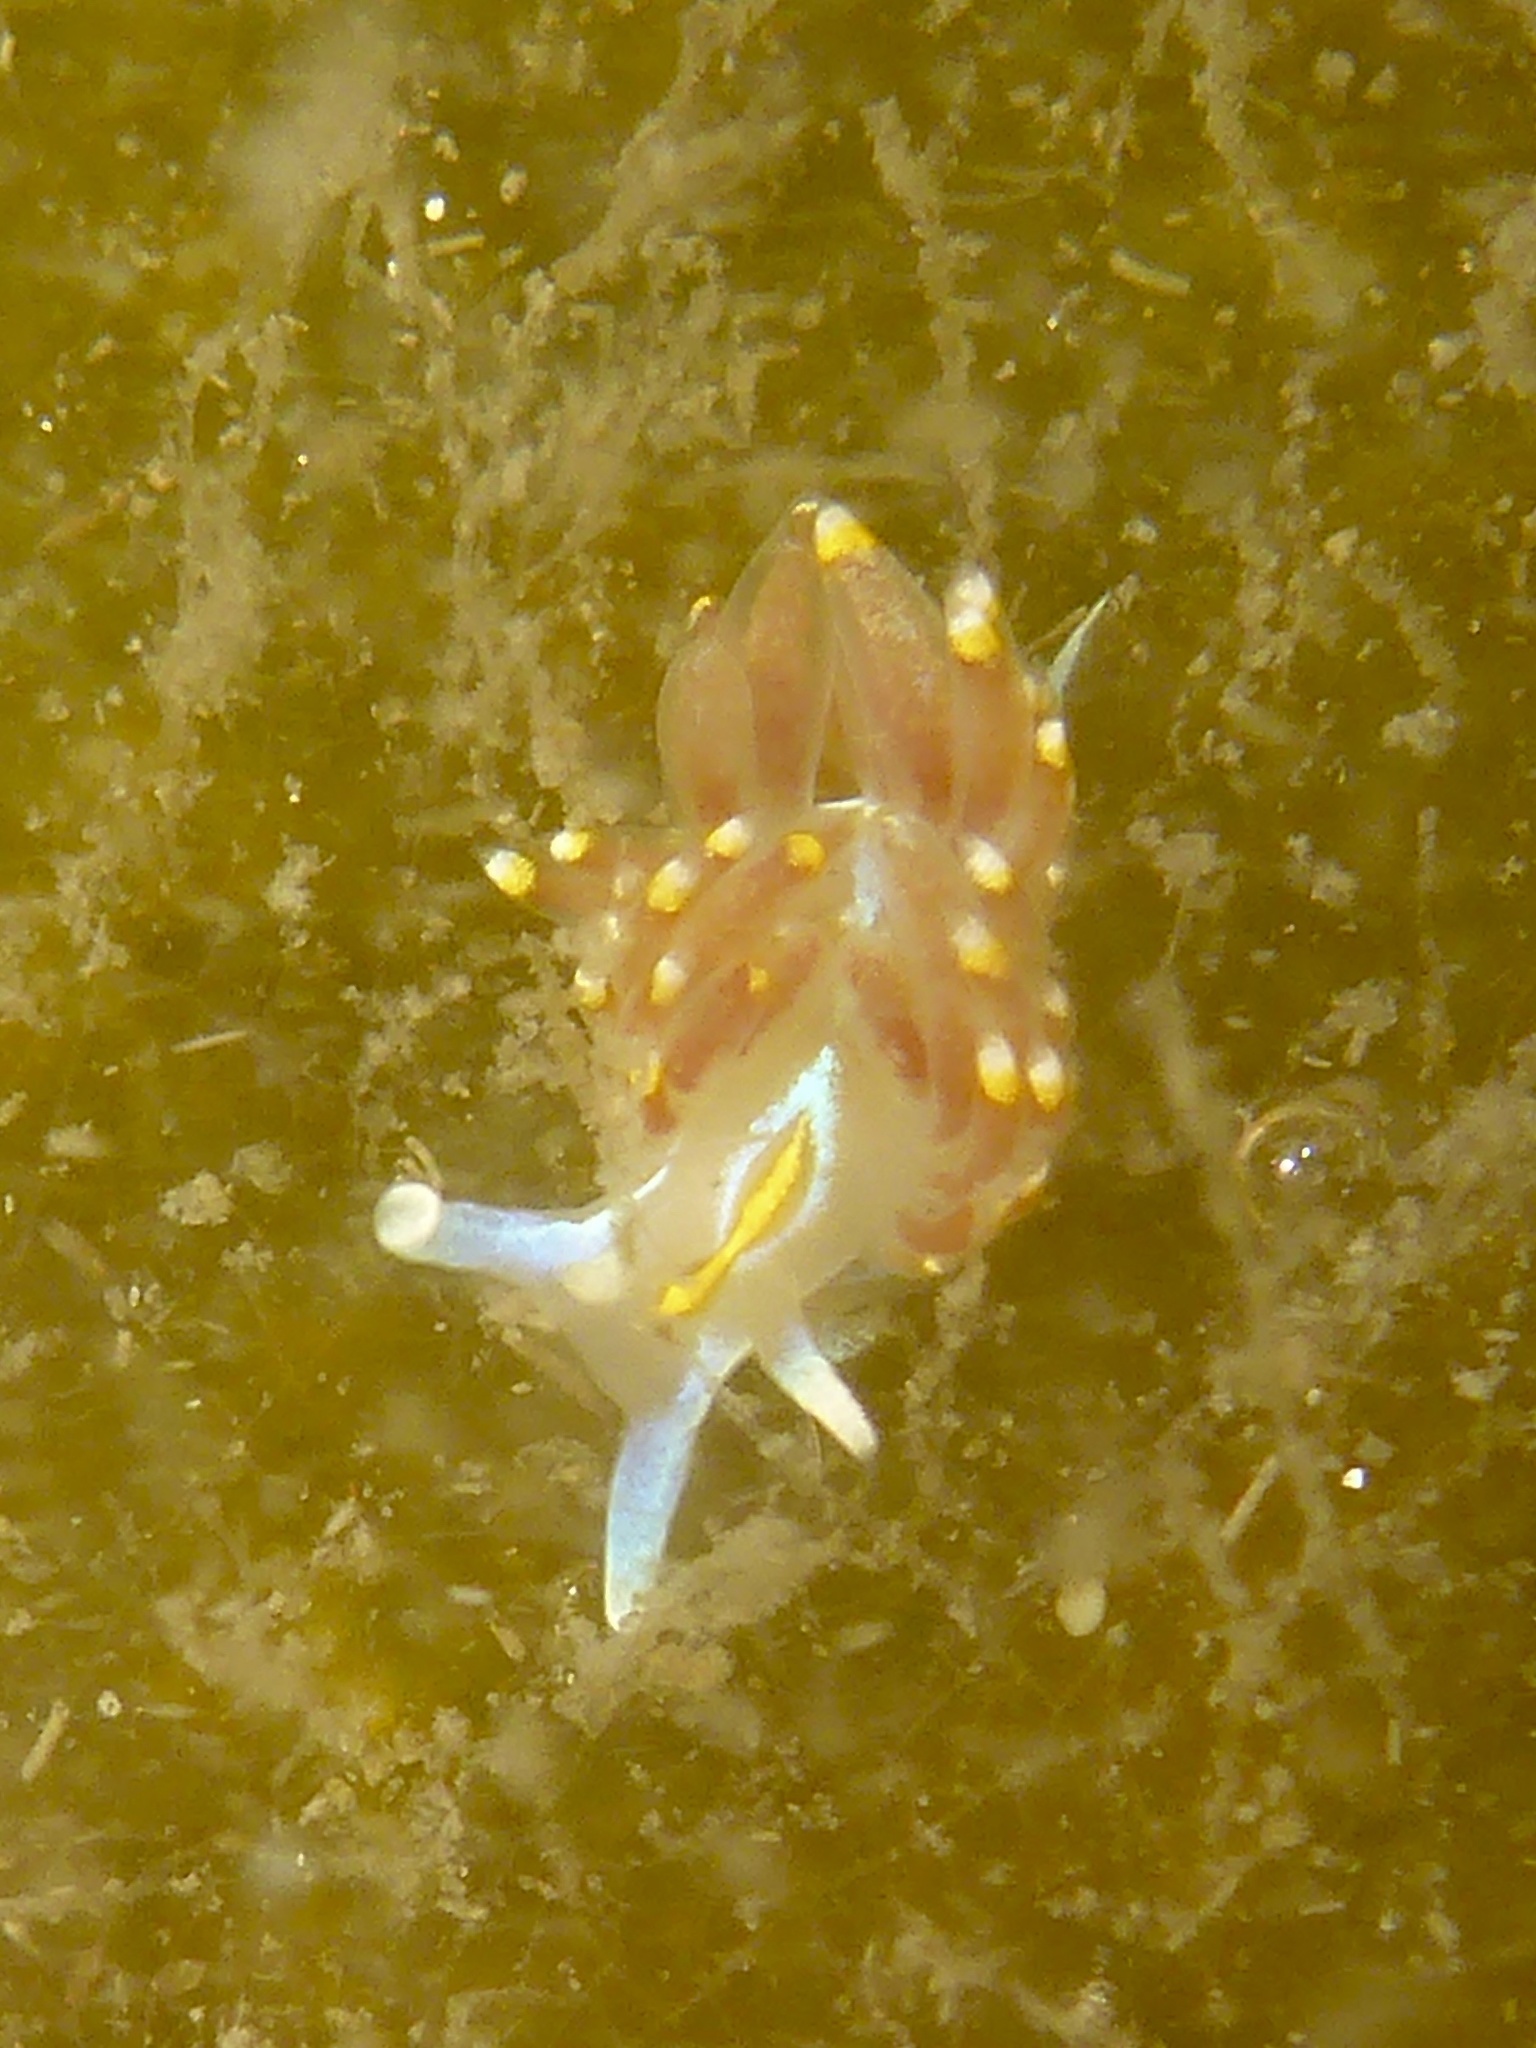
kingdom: Animalia
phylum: Mollusca
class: Gastropoda
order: Nudibranchia
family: Myrrhinidae
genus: Hermissenda
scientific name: Hermissenda opalescens
